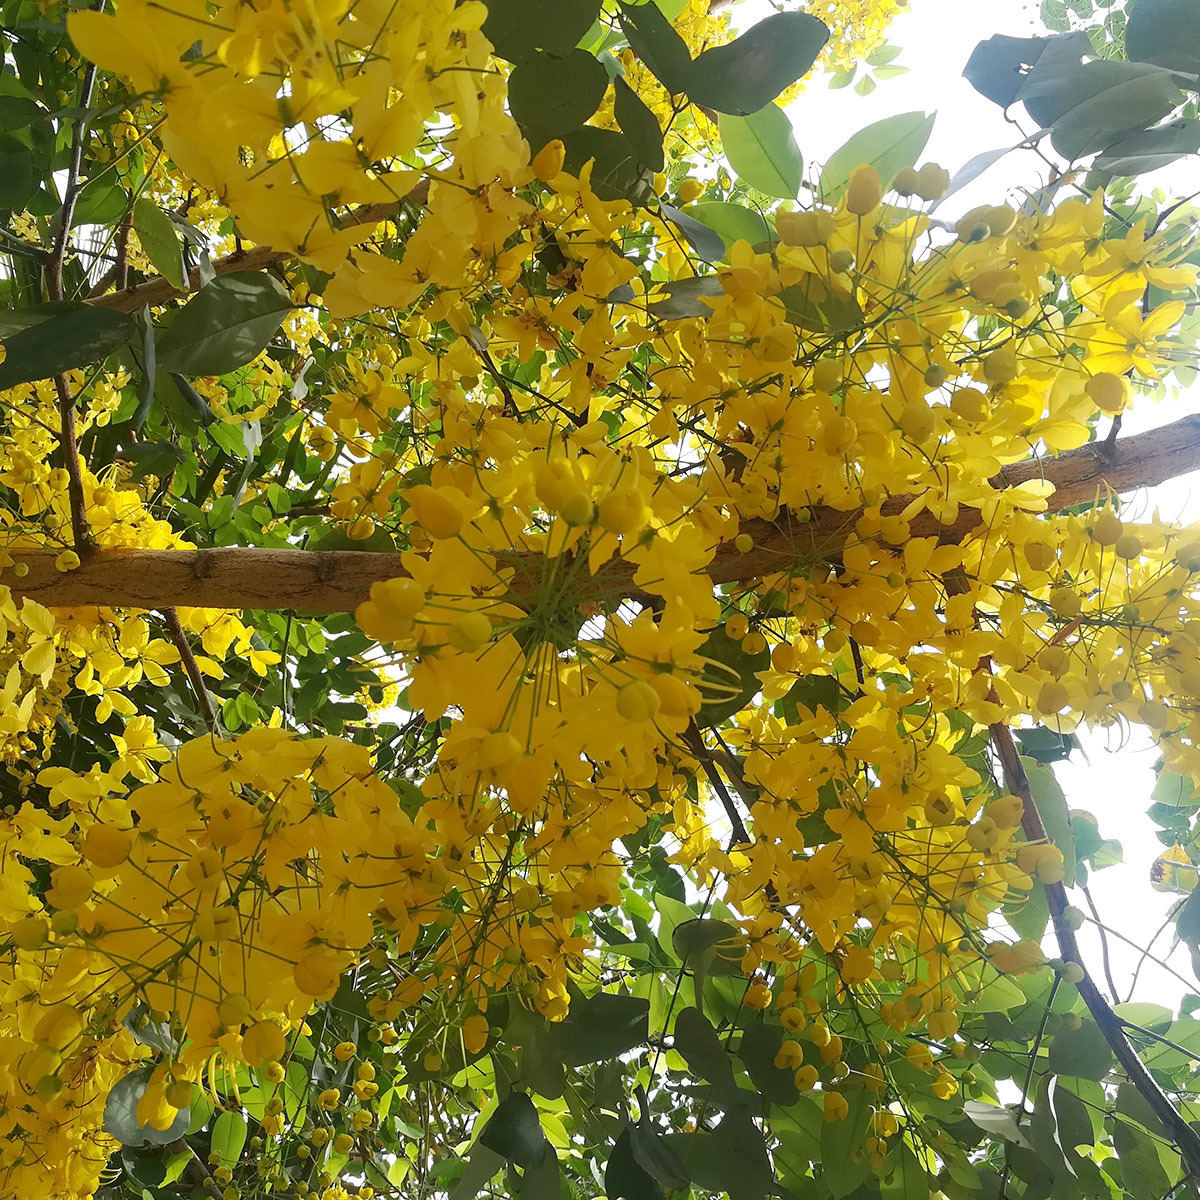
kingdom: Plantae
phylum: Tracheophyta
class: Magnoliopsida
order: Fabales
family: Fabaceae
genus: Cassia
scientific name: Cassia fistula
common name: Golden shower
